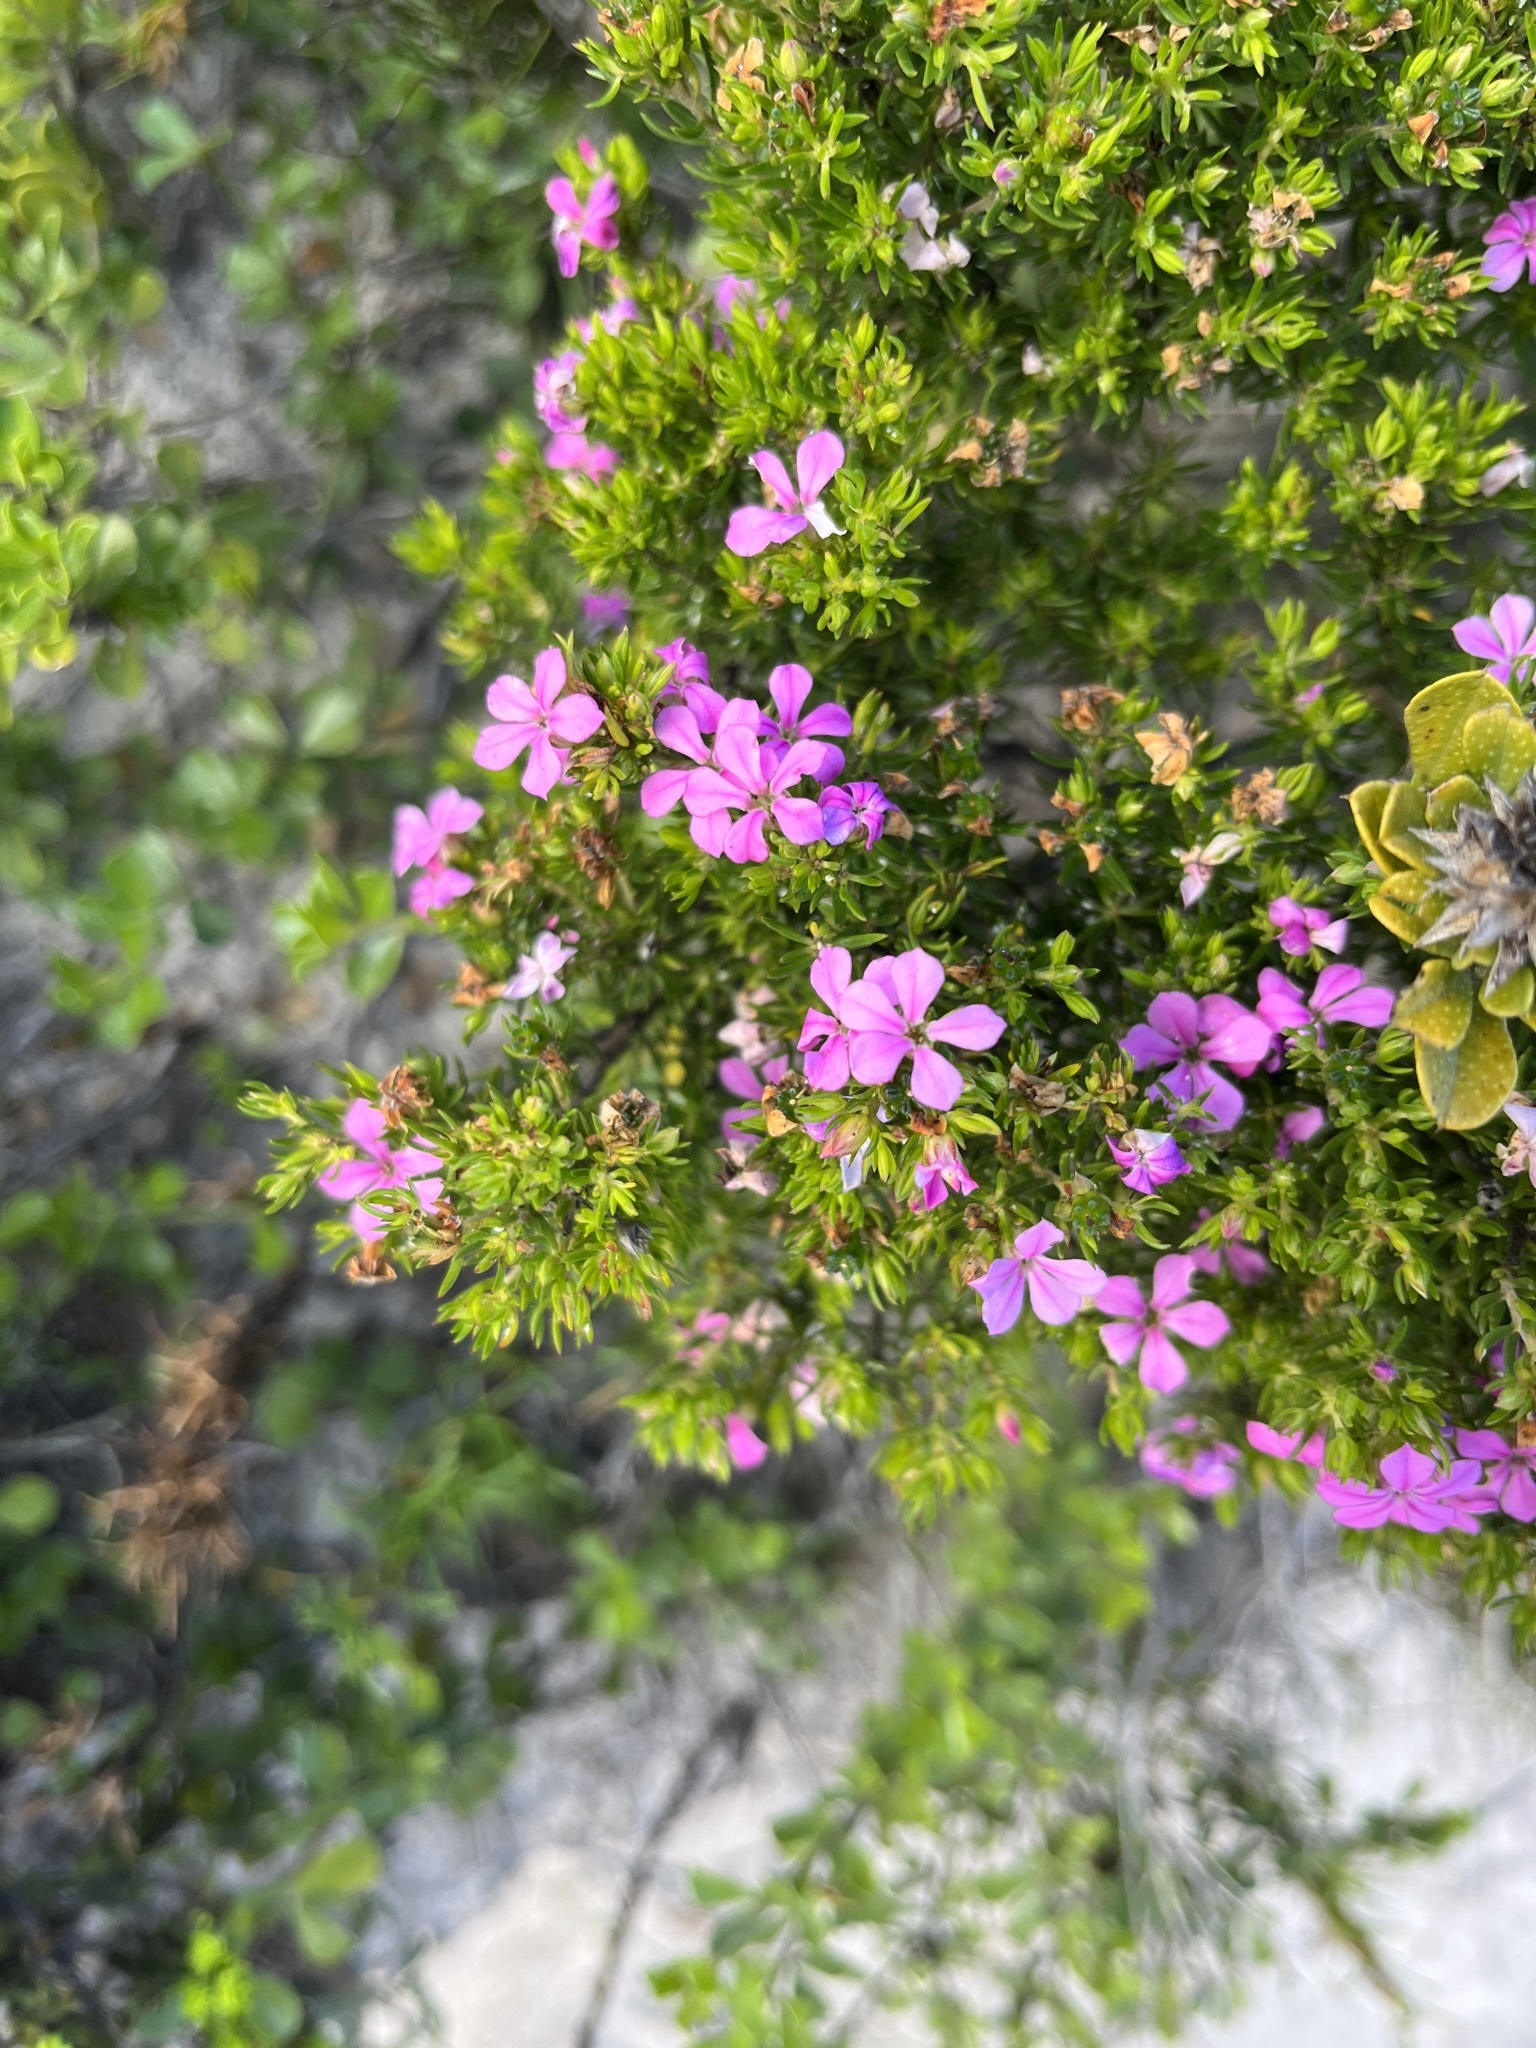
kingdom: Plantae
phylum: Tracheophyta
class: Magnoliopsida
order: Sapindales
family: Rutaceae
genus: Acmadenia
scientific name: Acmadenia obtusata
